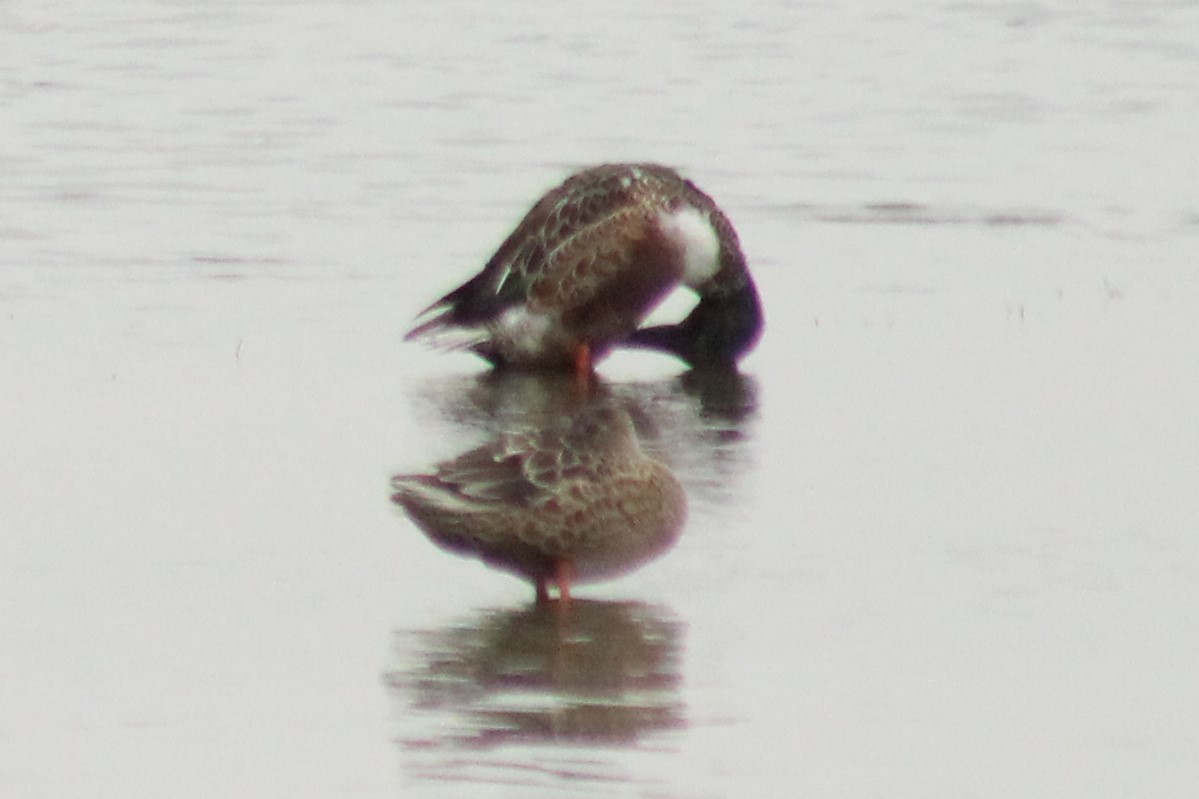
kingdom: Animalia
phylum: Chordata
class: Aves
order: Anseriformes
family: Anatidae
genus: Spatula
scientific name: Spatula clypeata
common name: Northern shoveler
